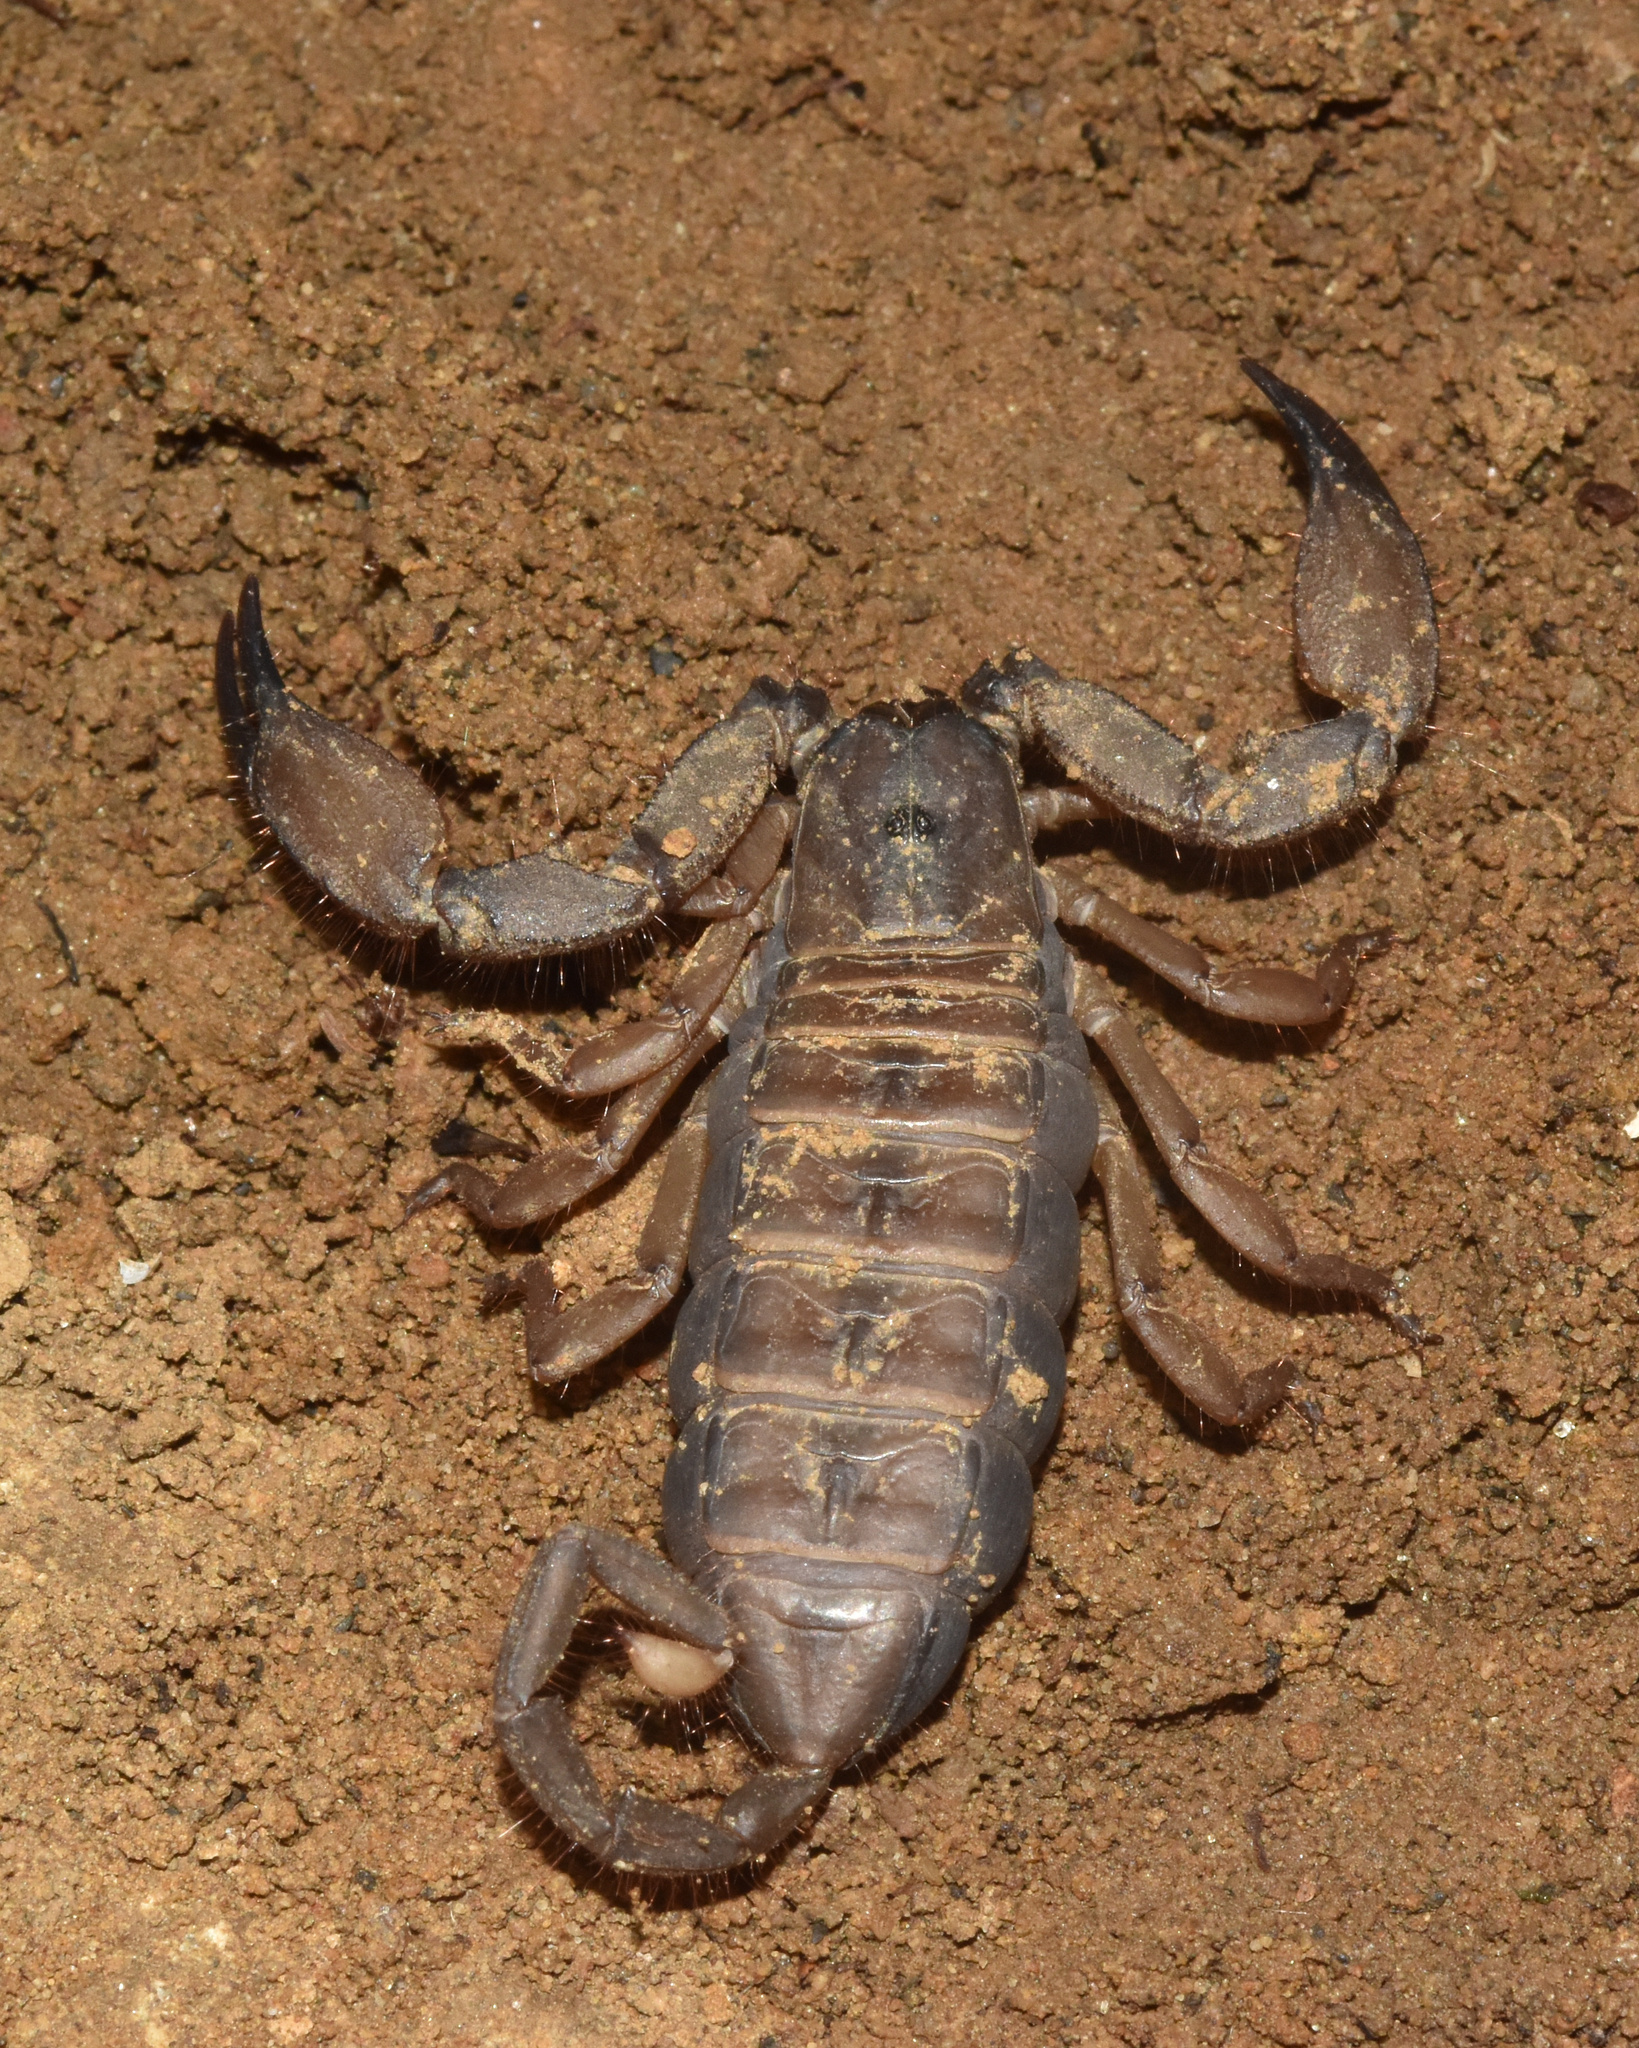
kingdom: Animalia
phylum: Arthropoda
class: Arachnida
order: Scorpiones
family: Hormuridae
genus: Hadogenes
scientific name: Hadogenes trichiurus
